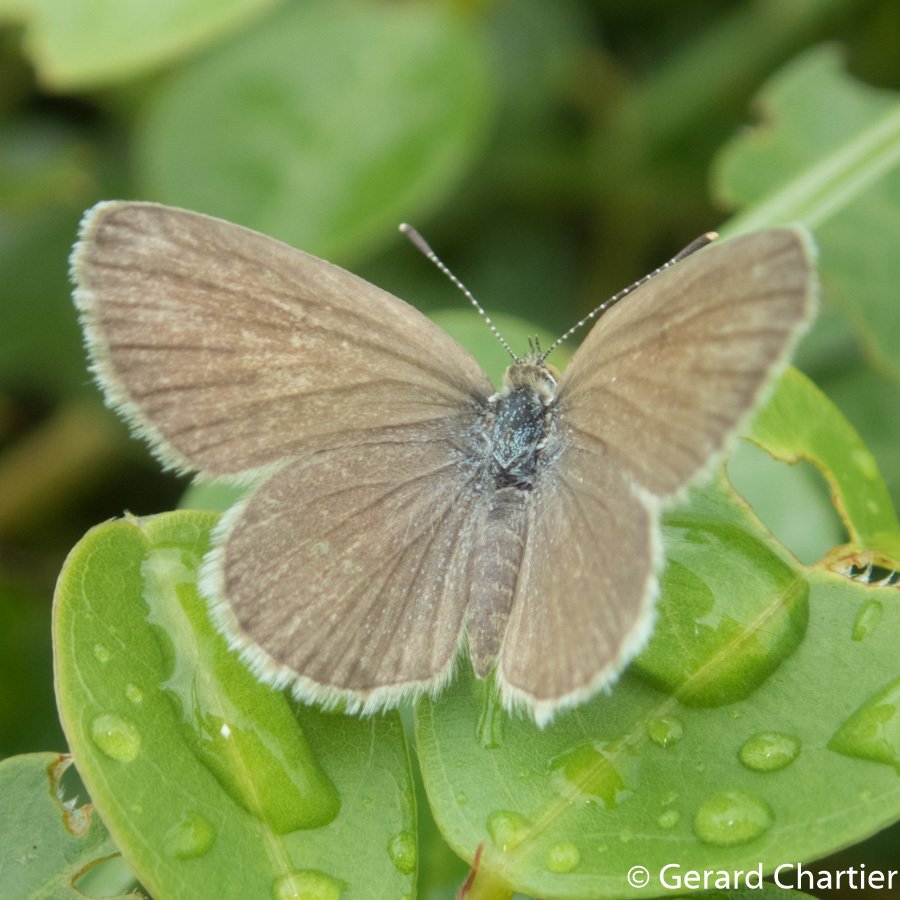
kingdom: Animalia
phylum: Arthropoda
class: Insecta
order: Lepidoptera
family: Lycaenidae
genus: Zizeeria
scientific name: Zizeeria karsandra
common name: Dark grass blue
